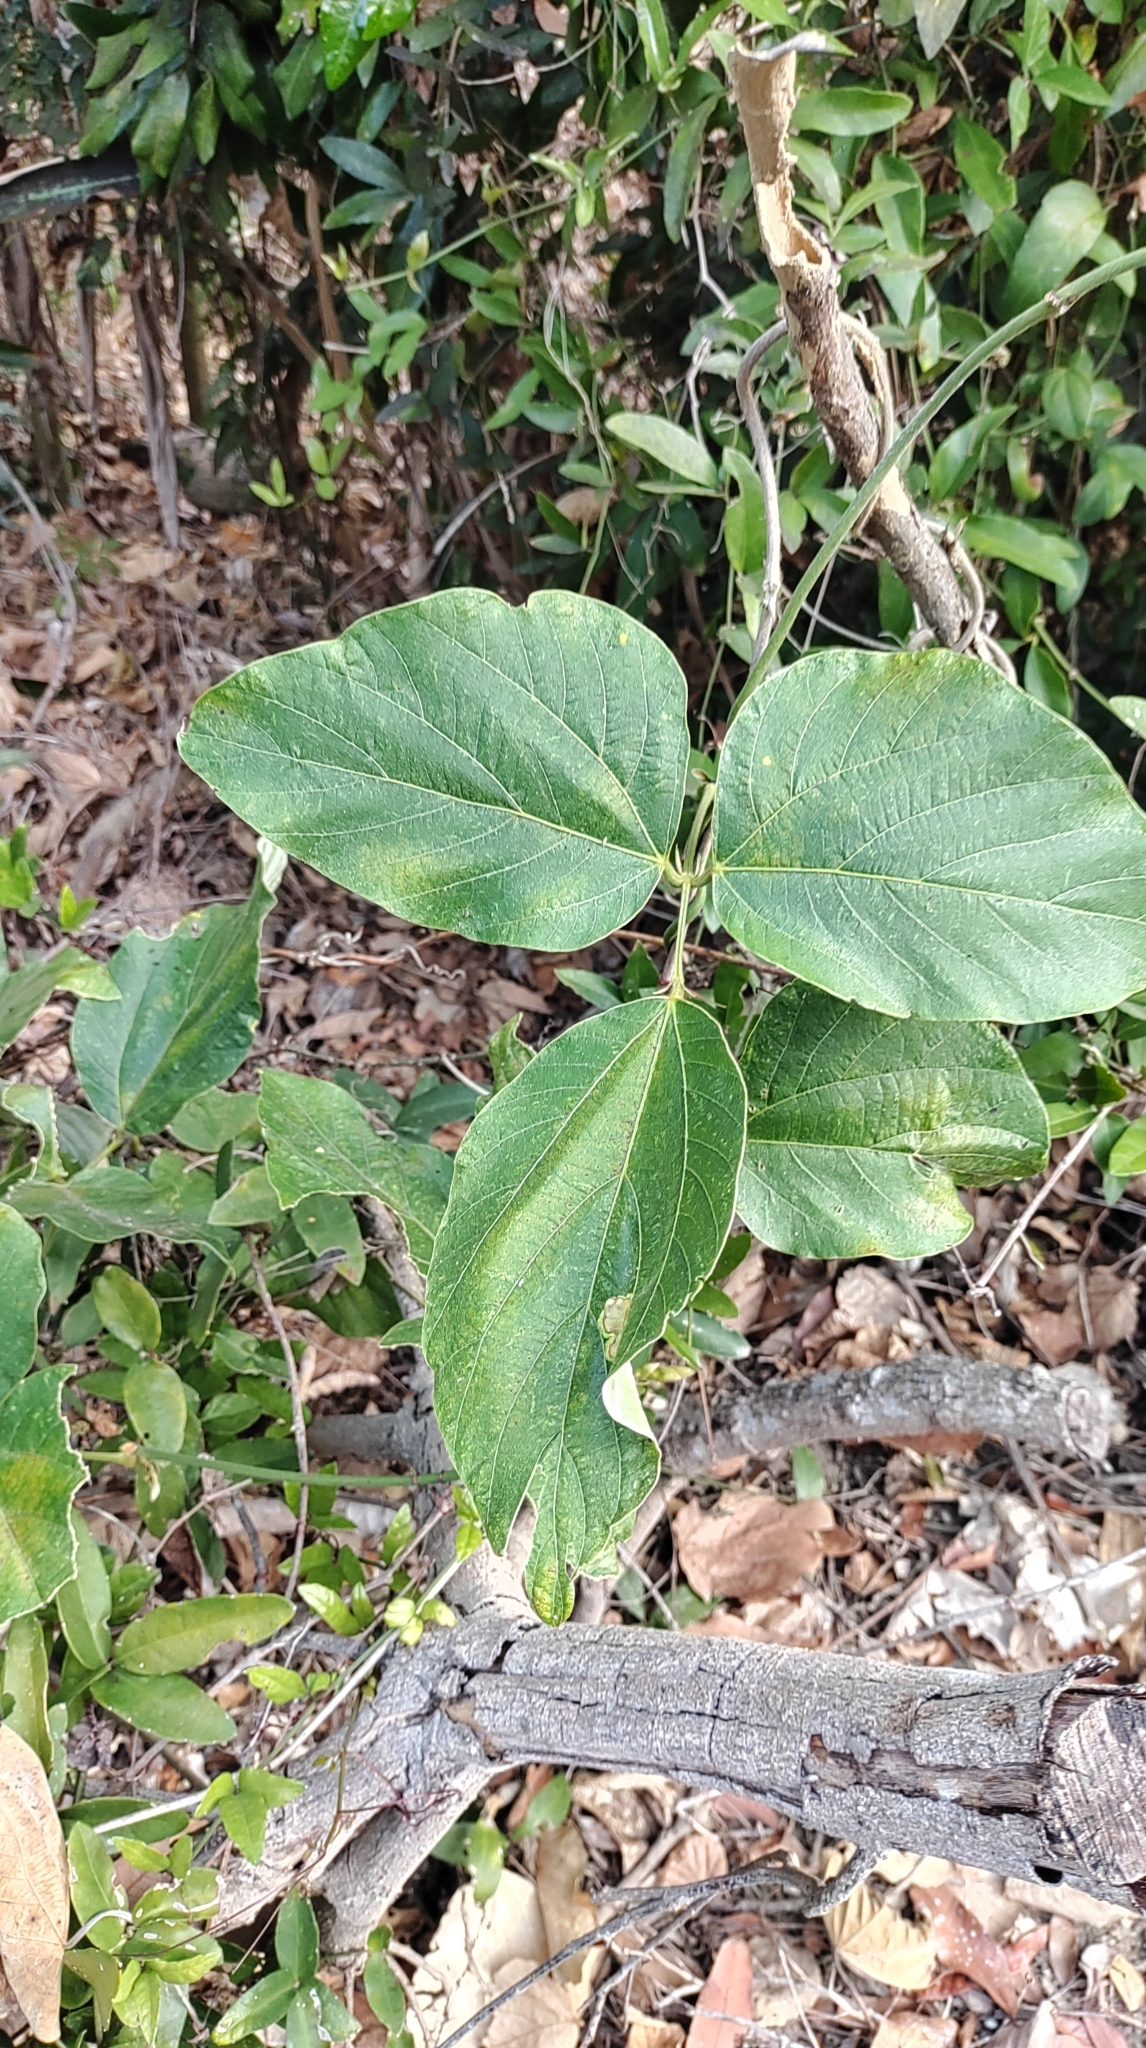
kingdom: Plantae
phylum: Tracheophyta
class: Magnoliopsida
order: Fabales
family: Fabaceae
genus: Pueraria
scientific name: Pueraria montana
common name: Kudzu
